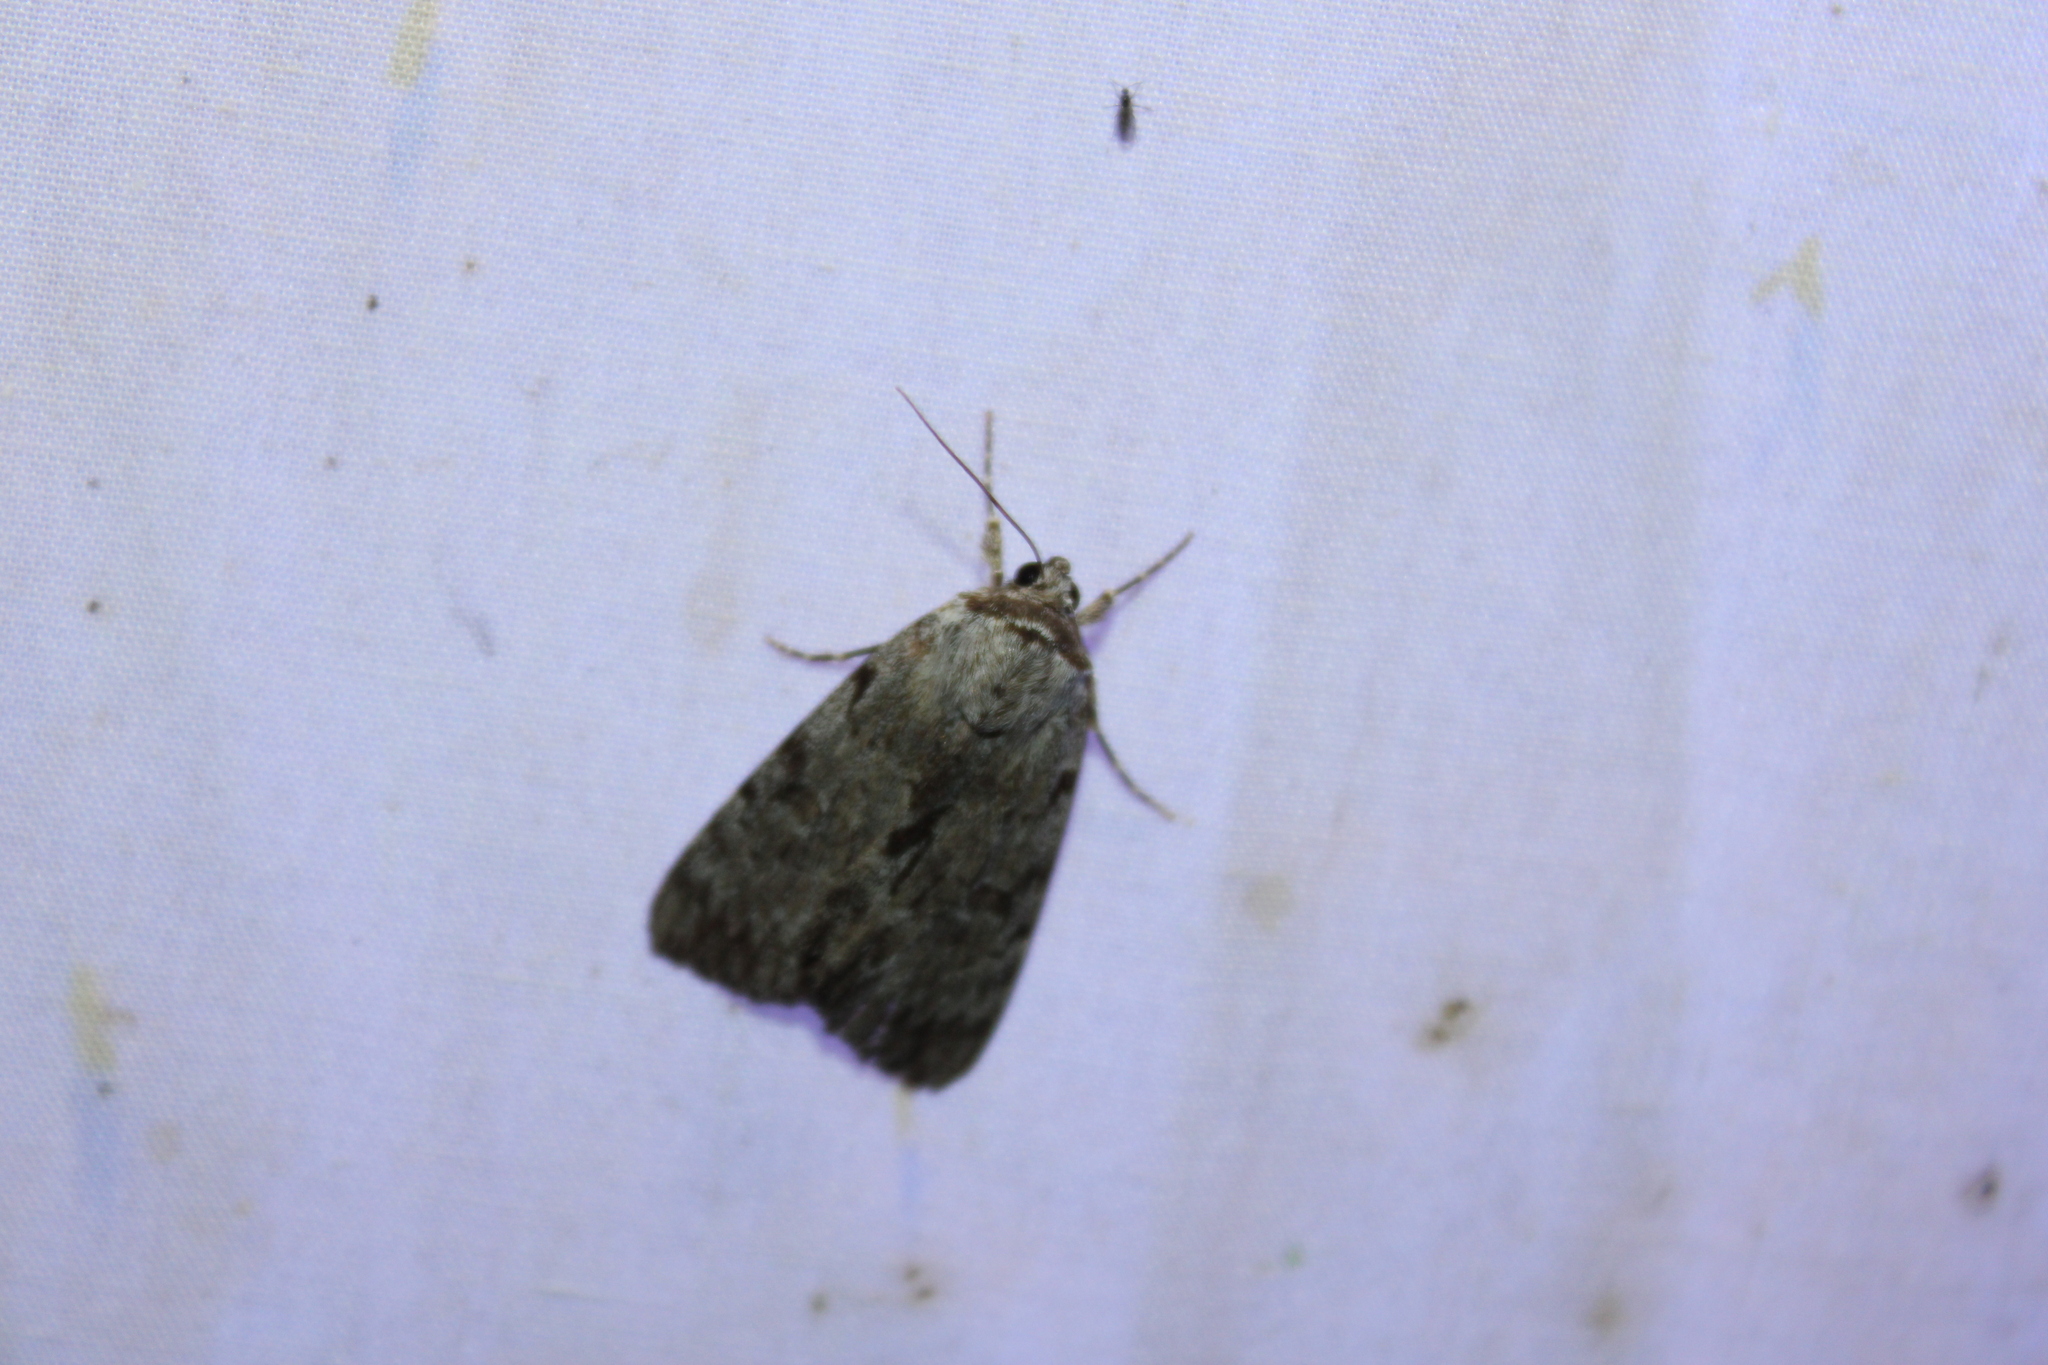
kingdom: Animalia
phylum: Arthropoda
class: Insecta
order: Lepidoptera
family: Erebidae
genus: Catocala
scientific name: Catocala sordida
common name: Sordid underwing
